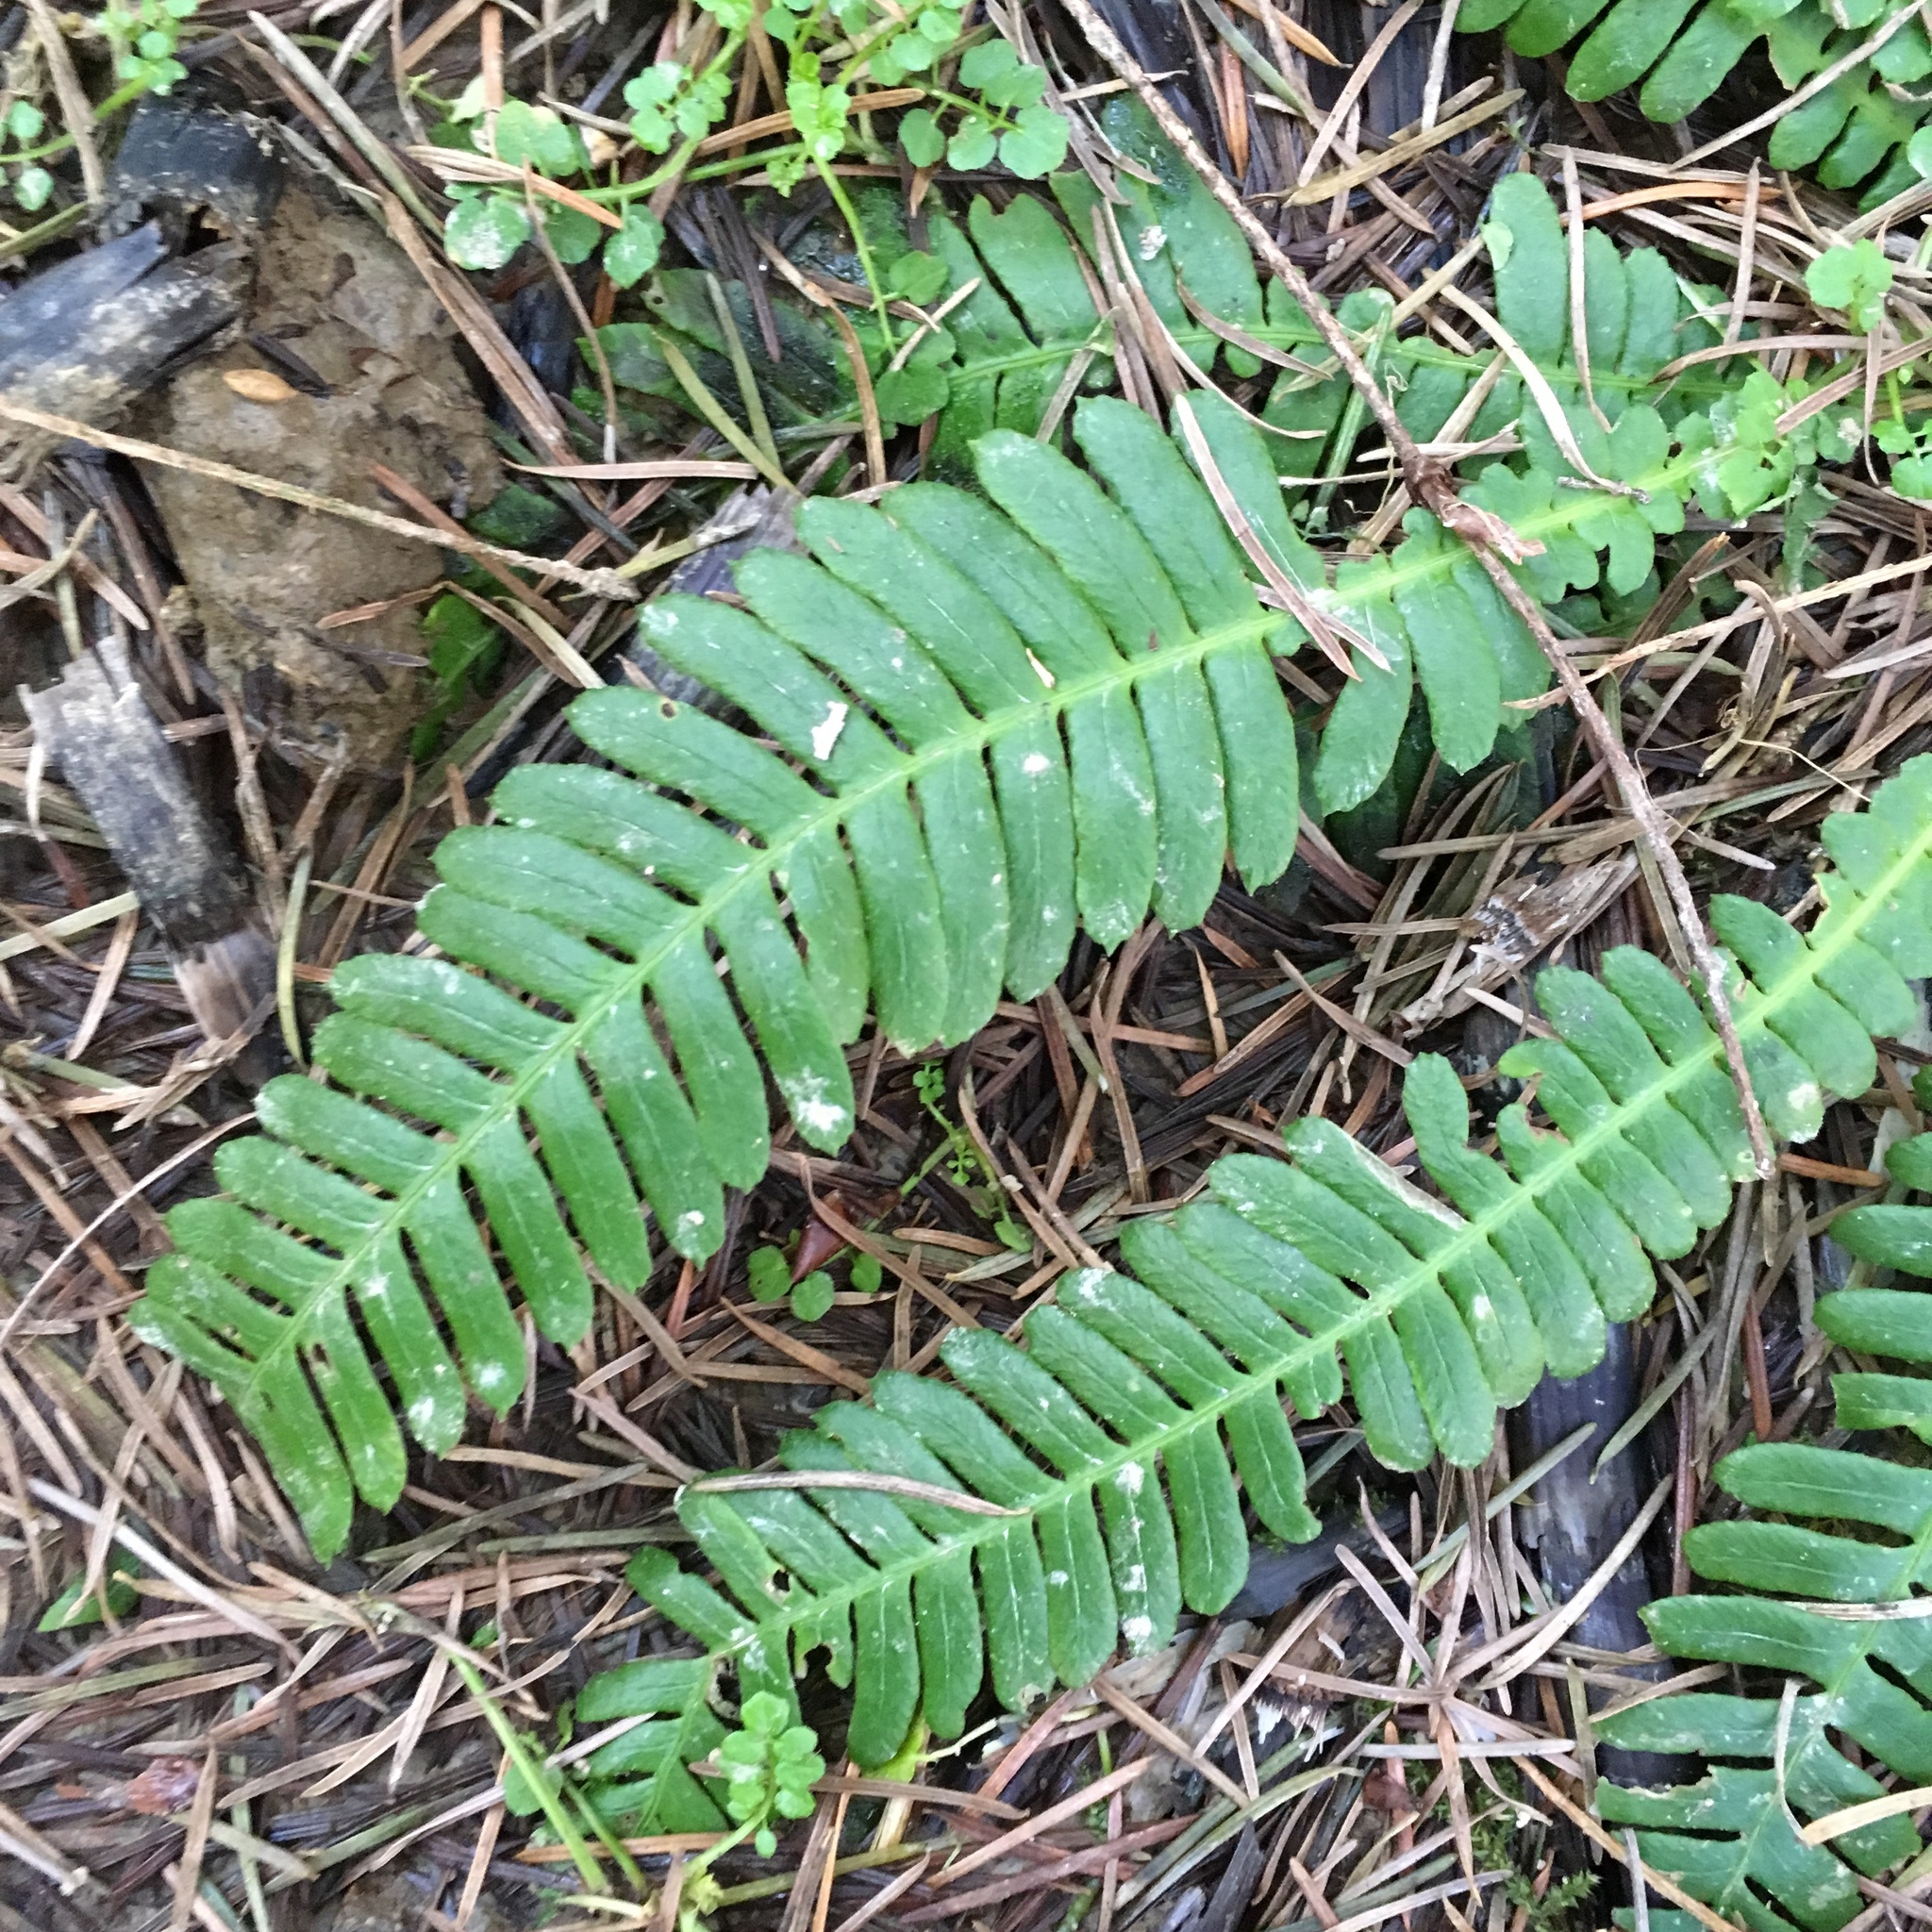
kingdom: Plantae
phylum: Tracheophyta
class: Polypodiopsida
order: Polypodiales
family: Blechnaceae
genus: Struthiopteris
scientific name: Struthiopteris spicant
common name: Deer fern
